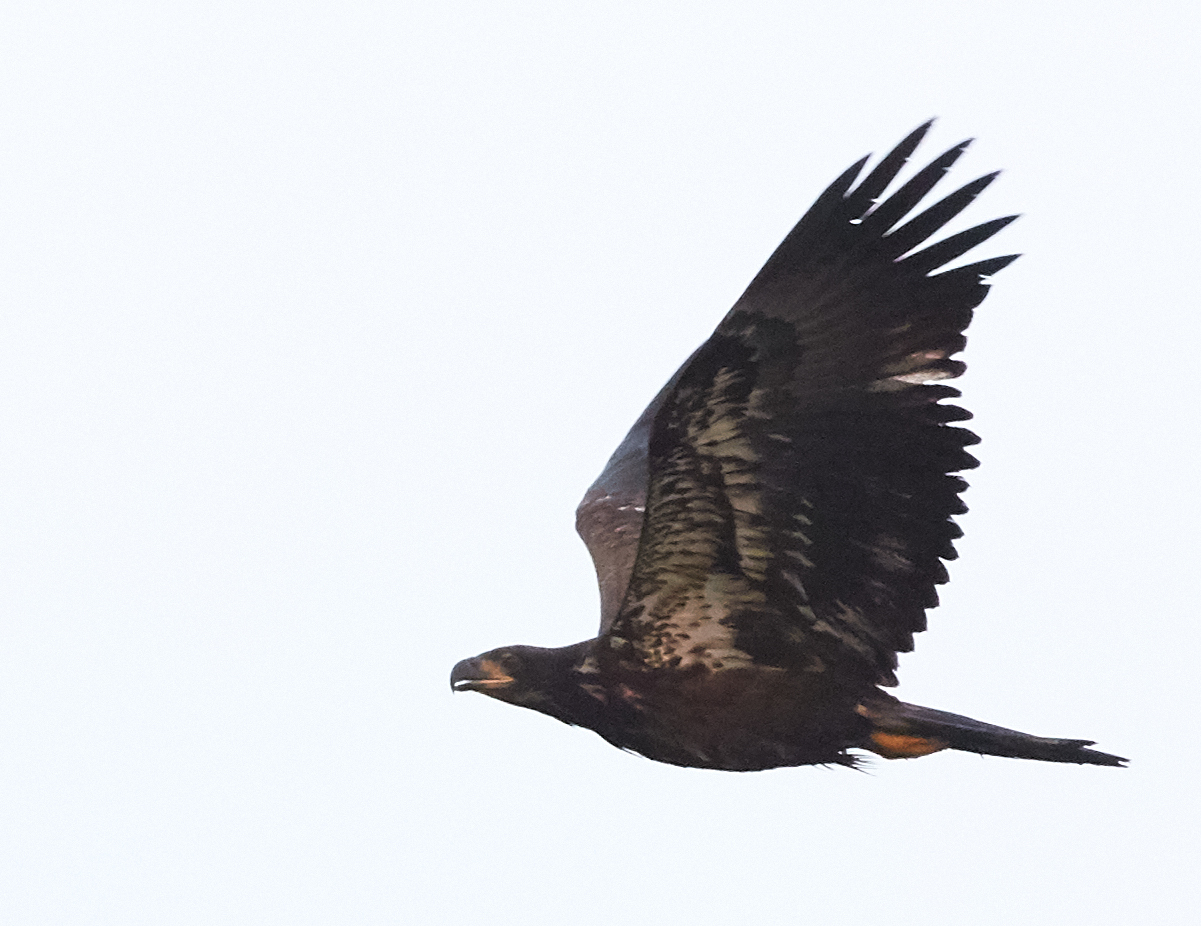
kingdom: Animalia
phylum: Chordata
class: Aves
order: Accipitriformes
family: Accipitridae
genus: Haliaeetus
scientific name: Haliaeetus leucocephalus
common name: Bald eagle
